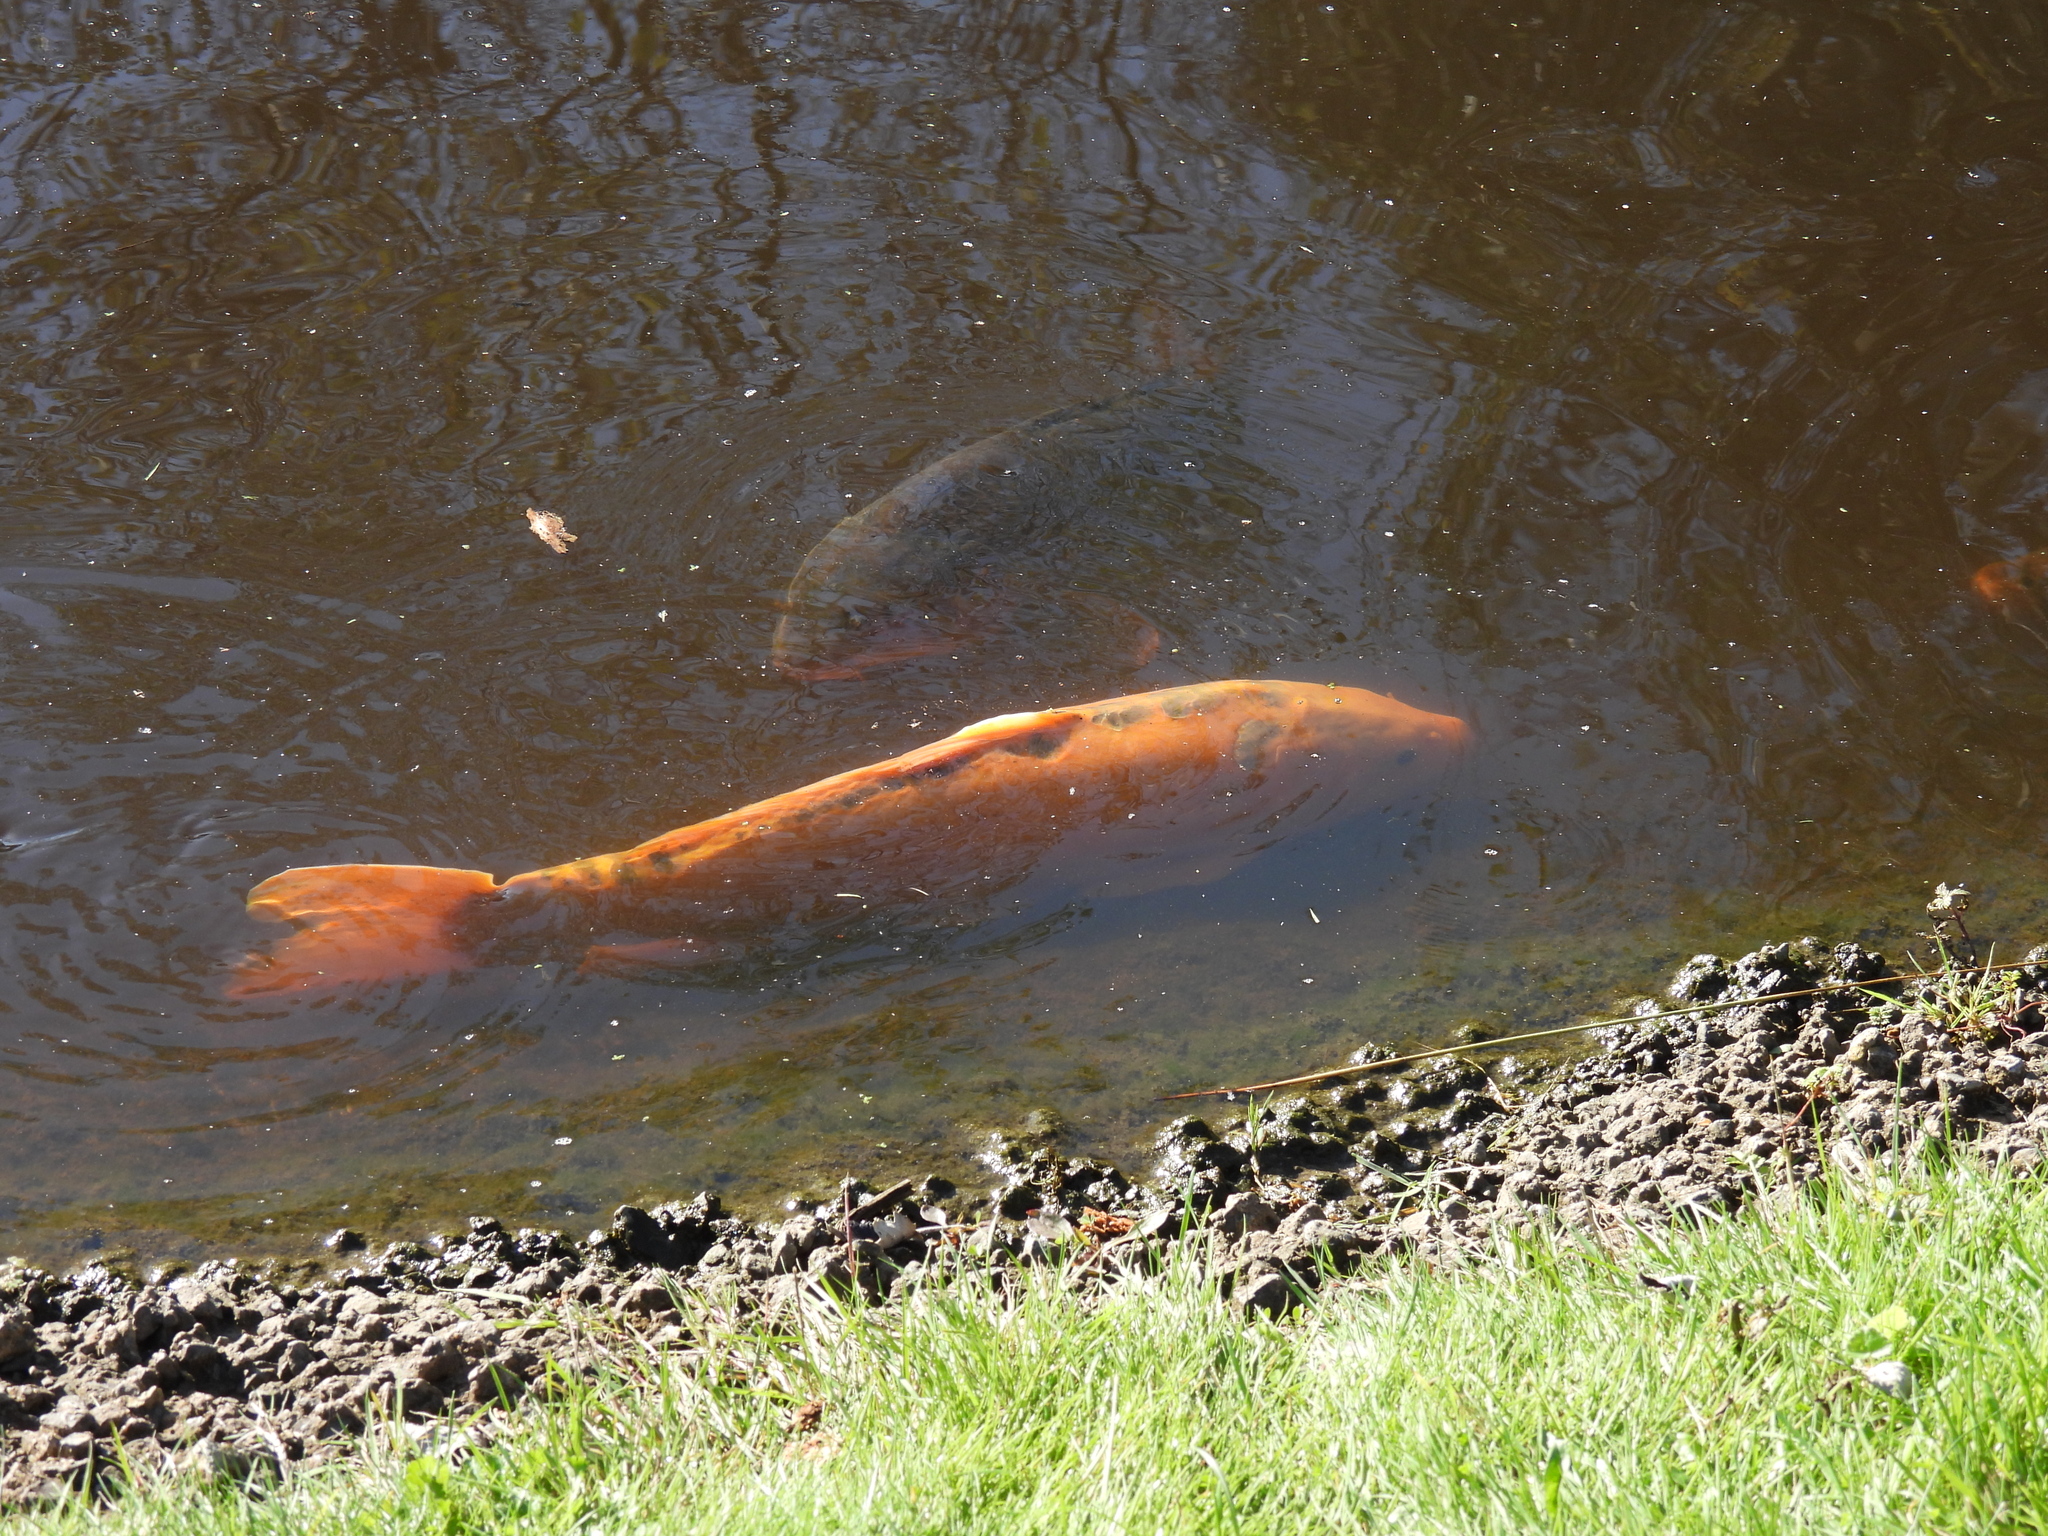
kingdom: Animalia
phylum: Chordata
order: Cypriniformes
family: Cyprinidae
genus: Cyprinus
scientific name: Cyprinus rubrofuscus
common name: Koi
